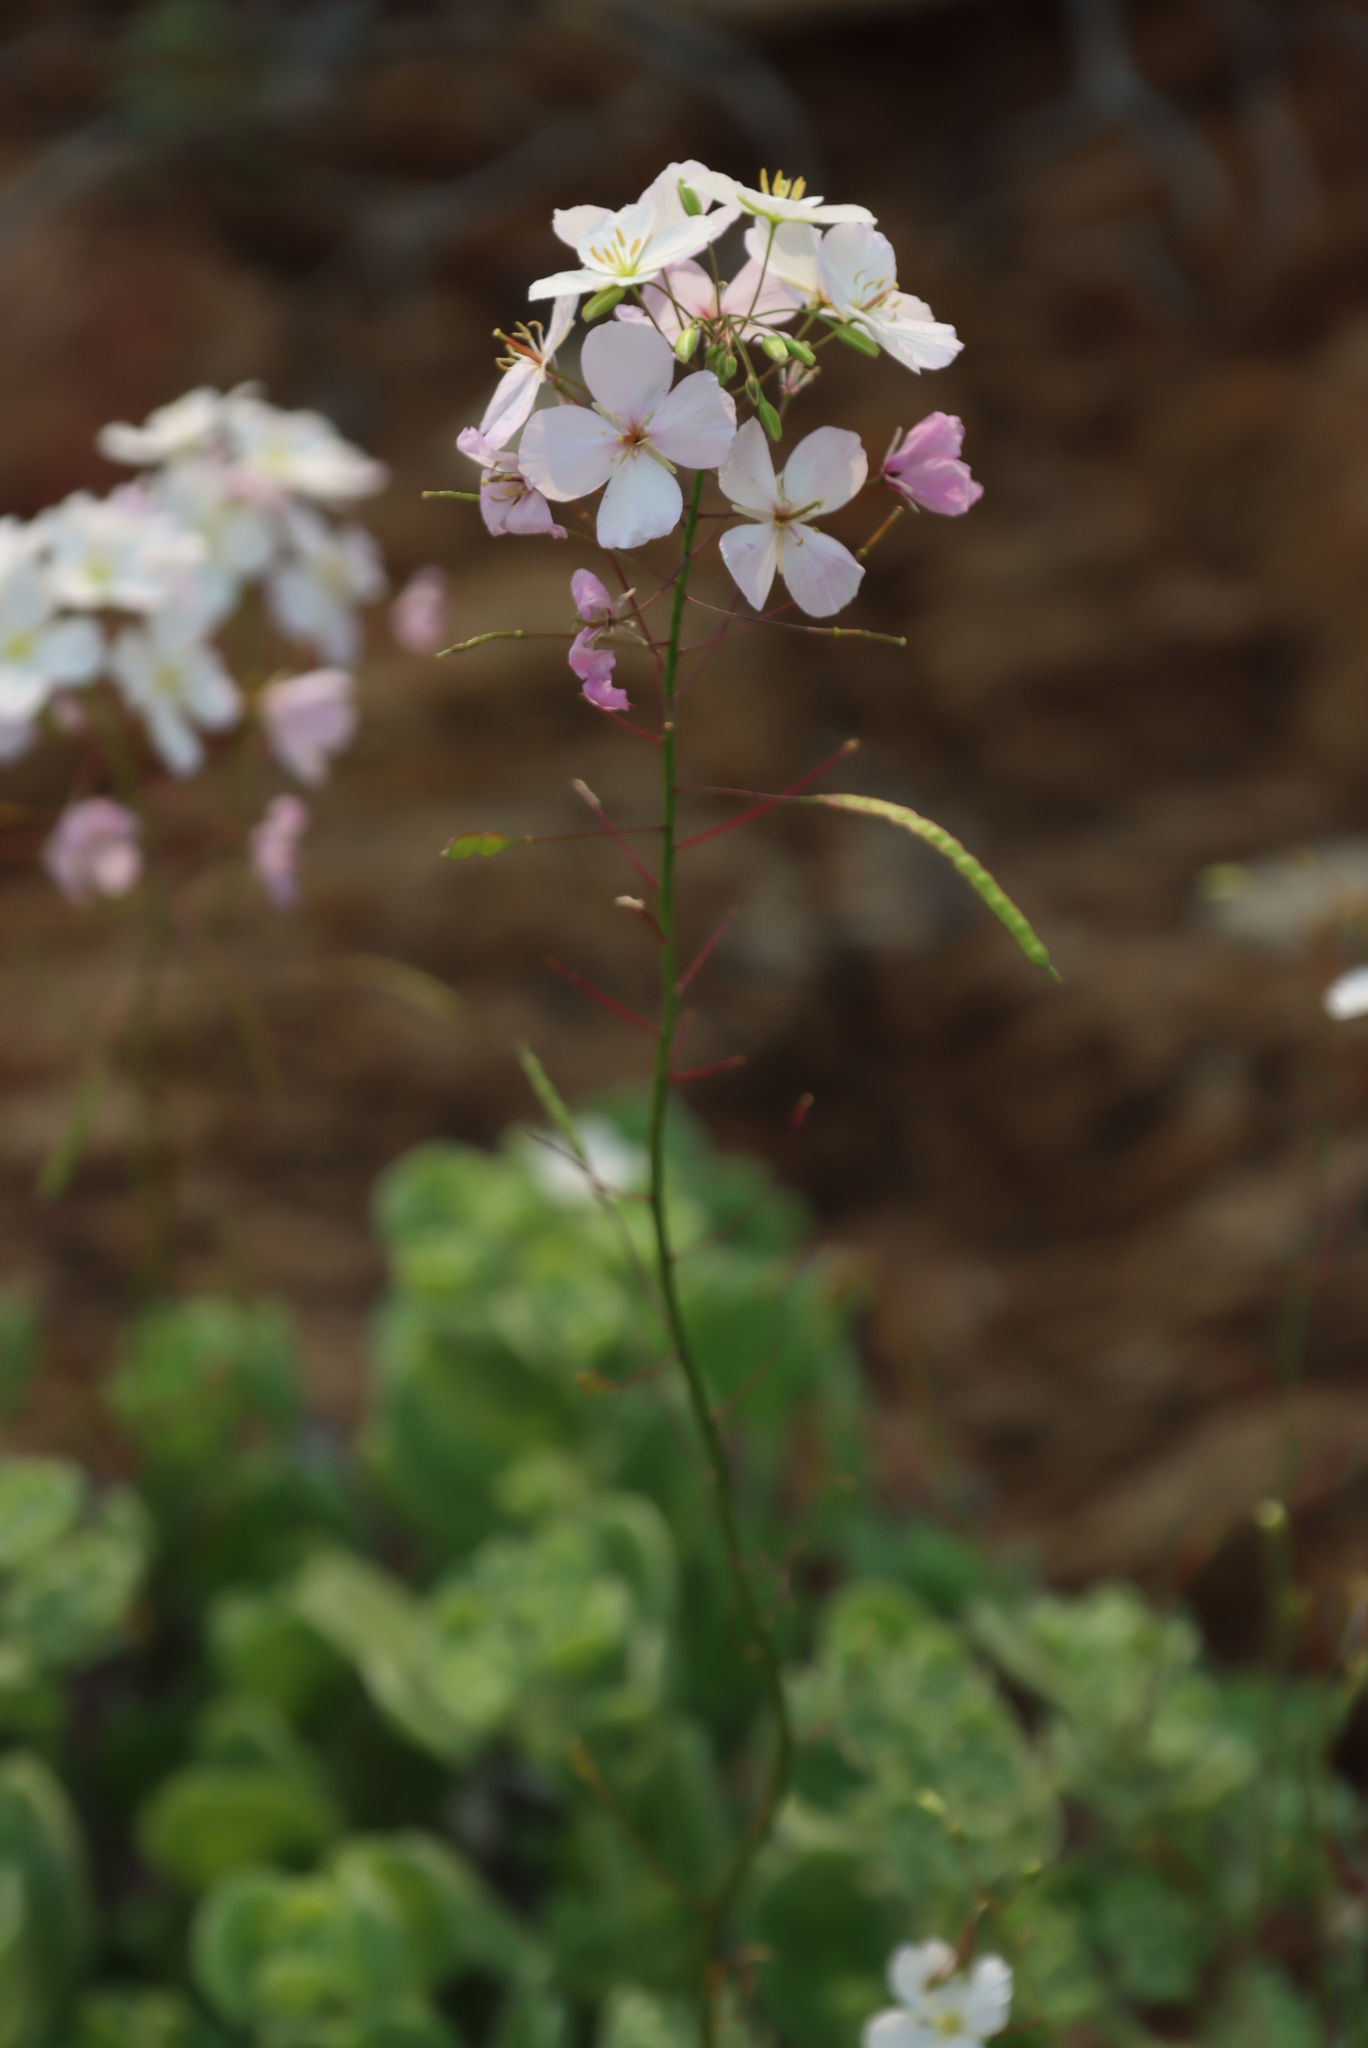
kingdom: Plantae
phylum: Tracheophyta
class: Magnoliopsida
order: Brassicales
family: Brassicaceae
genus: Heliophila
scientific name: Heliophila variabilis
